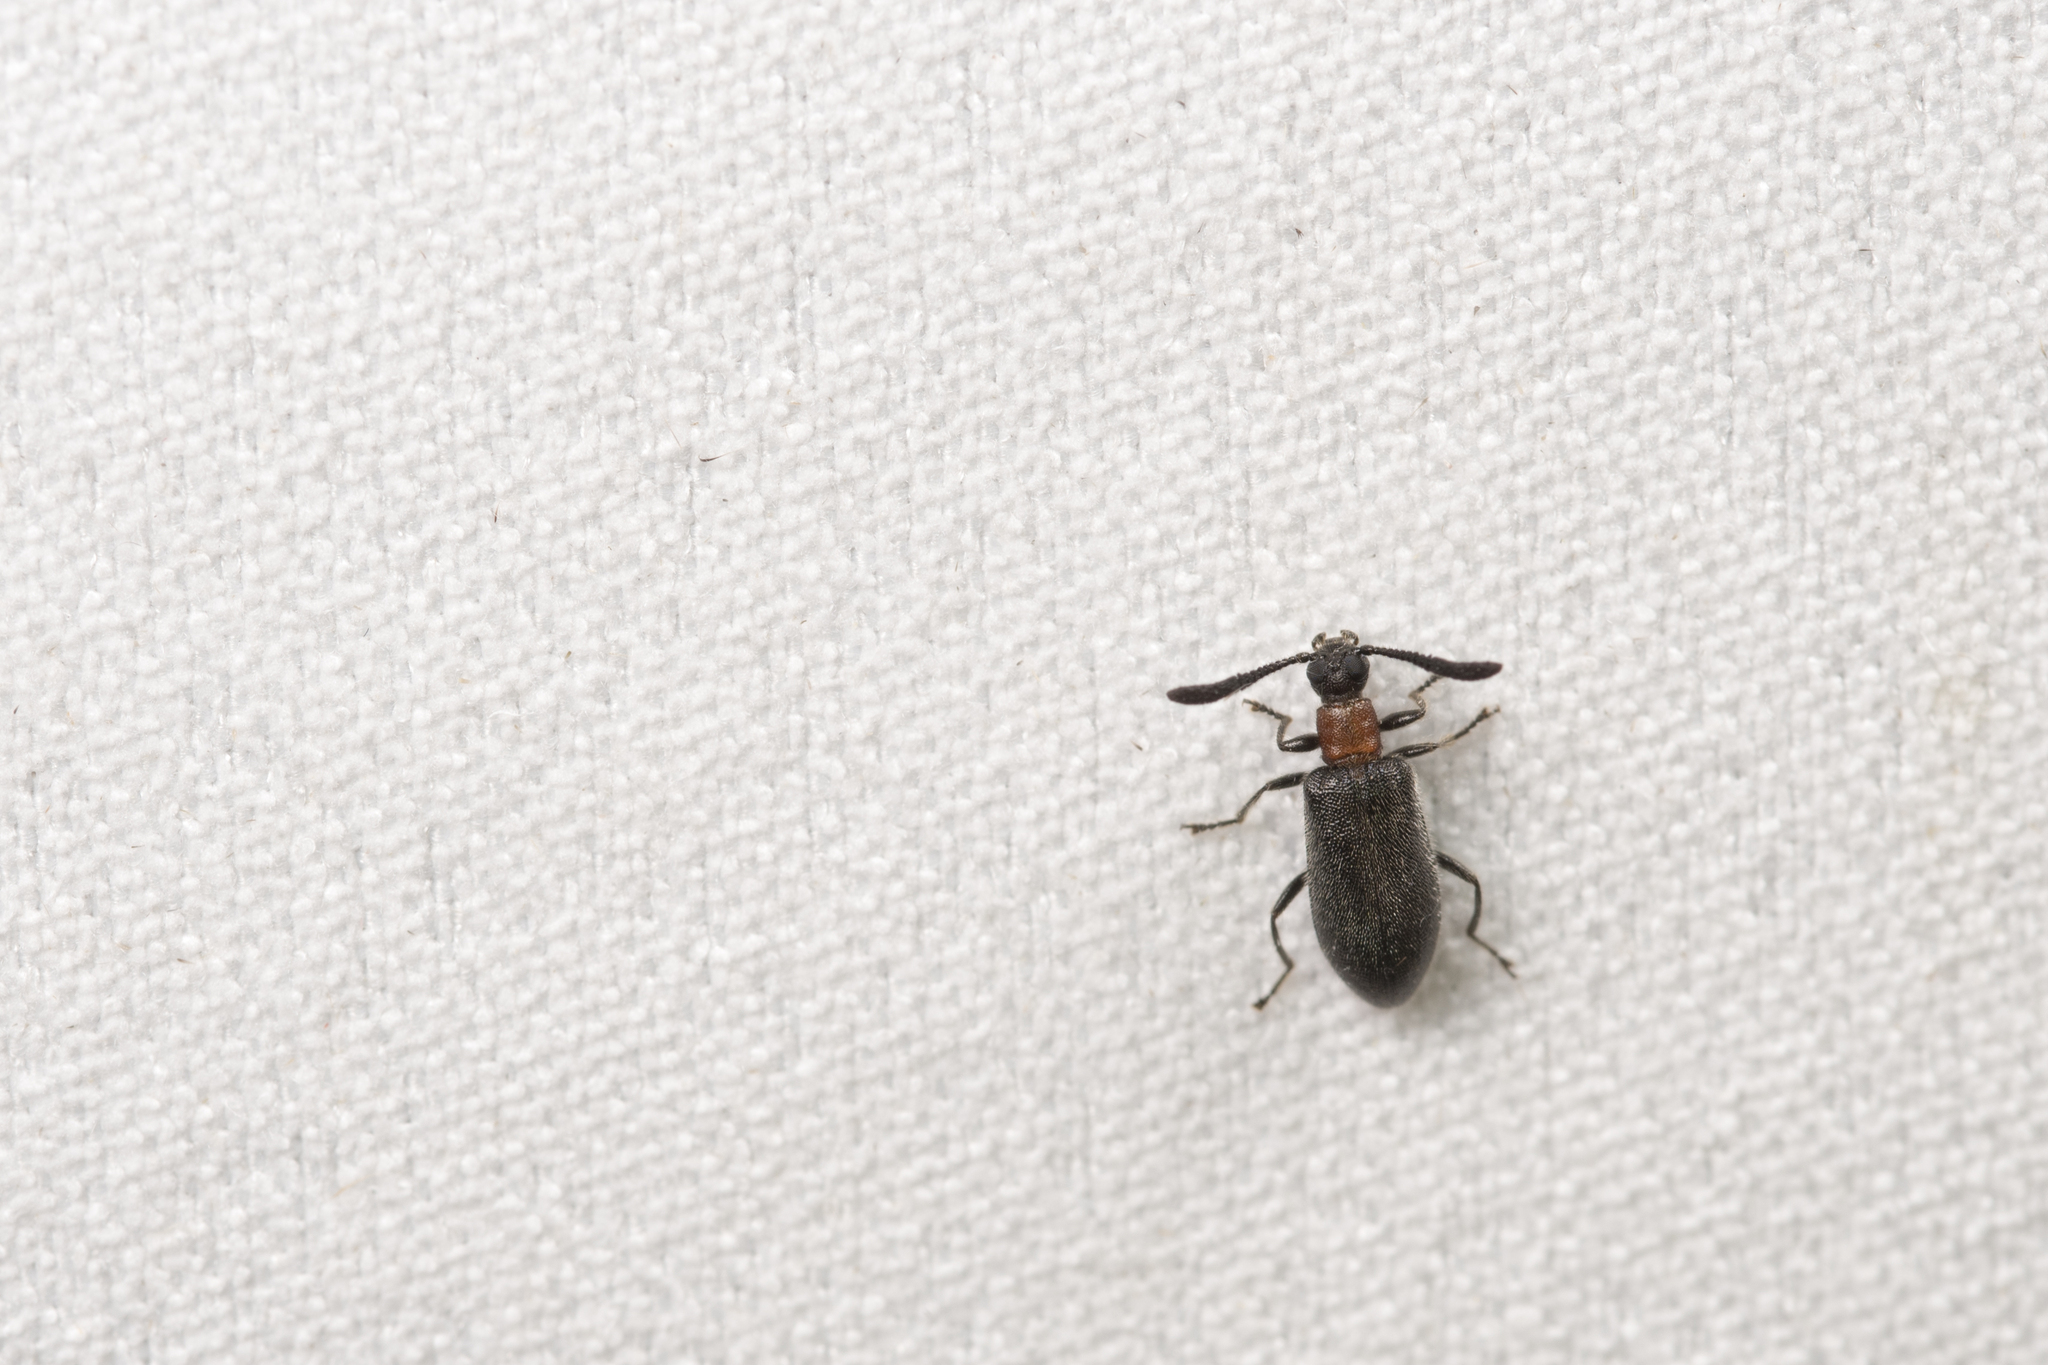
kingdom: Animalia
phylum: Arthropoda
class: Insecta
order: Coleoptera
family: Tenebrionidae
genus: Xenocerogria
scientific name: Xenocerogria ruficollis
